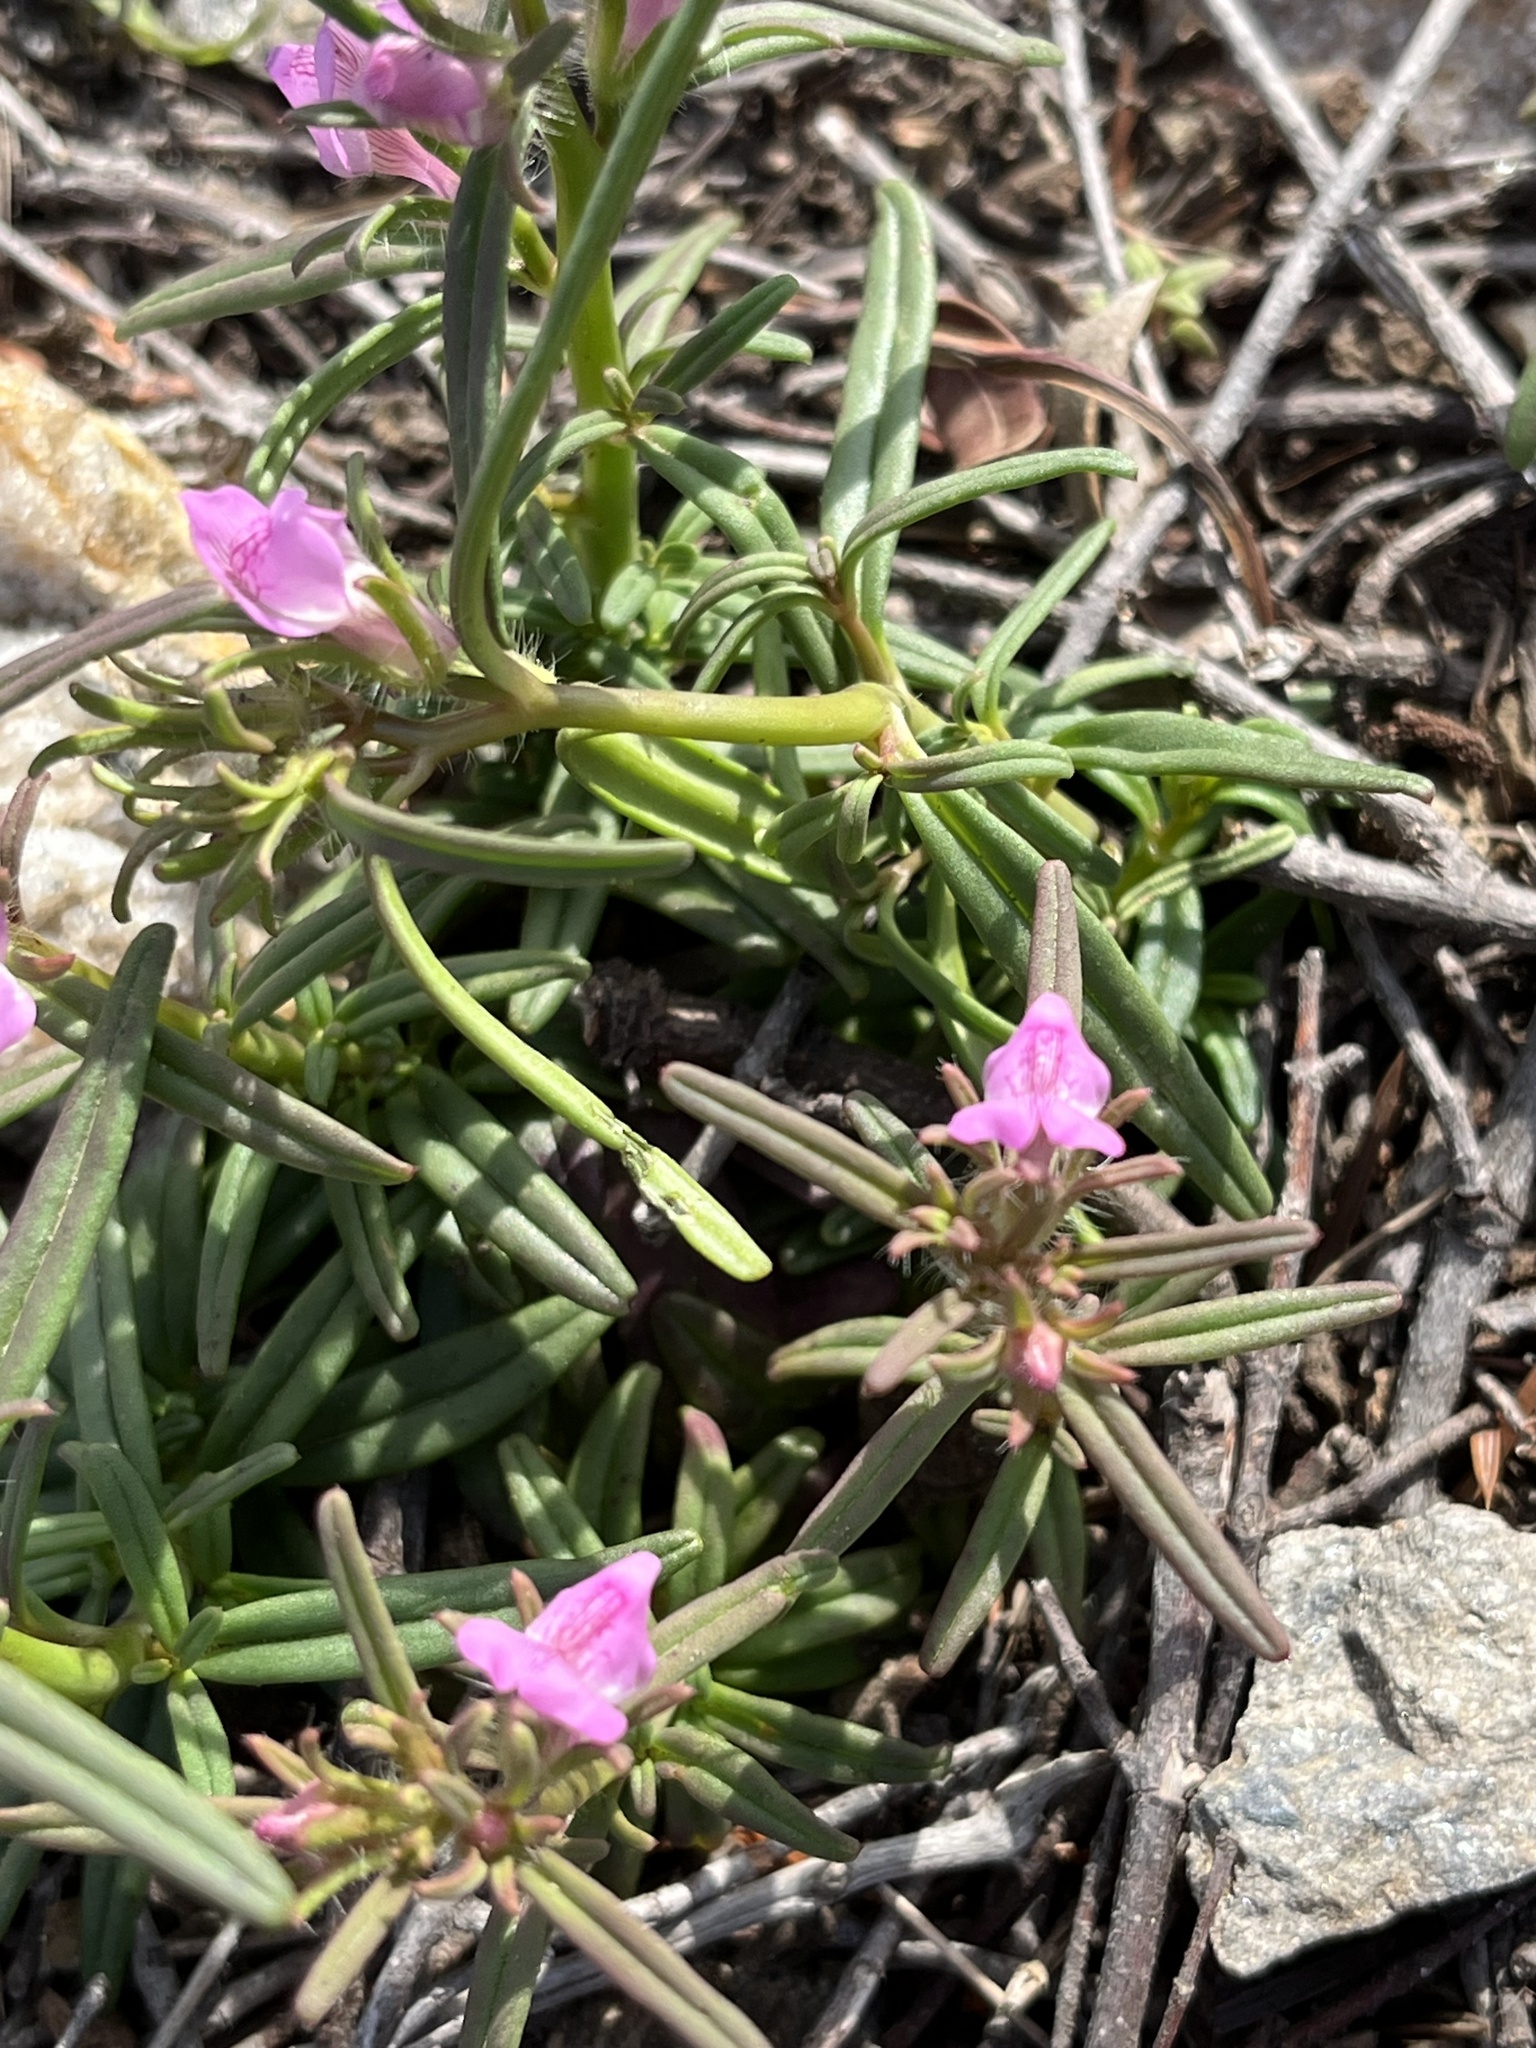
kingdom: Plantae
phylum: Tracheophyta
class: Magnoliopsida
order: Lamiales
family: Plantaginaceae
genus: Misopates
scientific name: Misopates orontium
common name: Weasel's-snout
